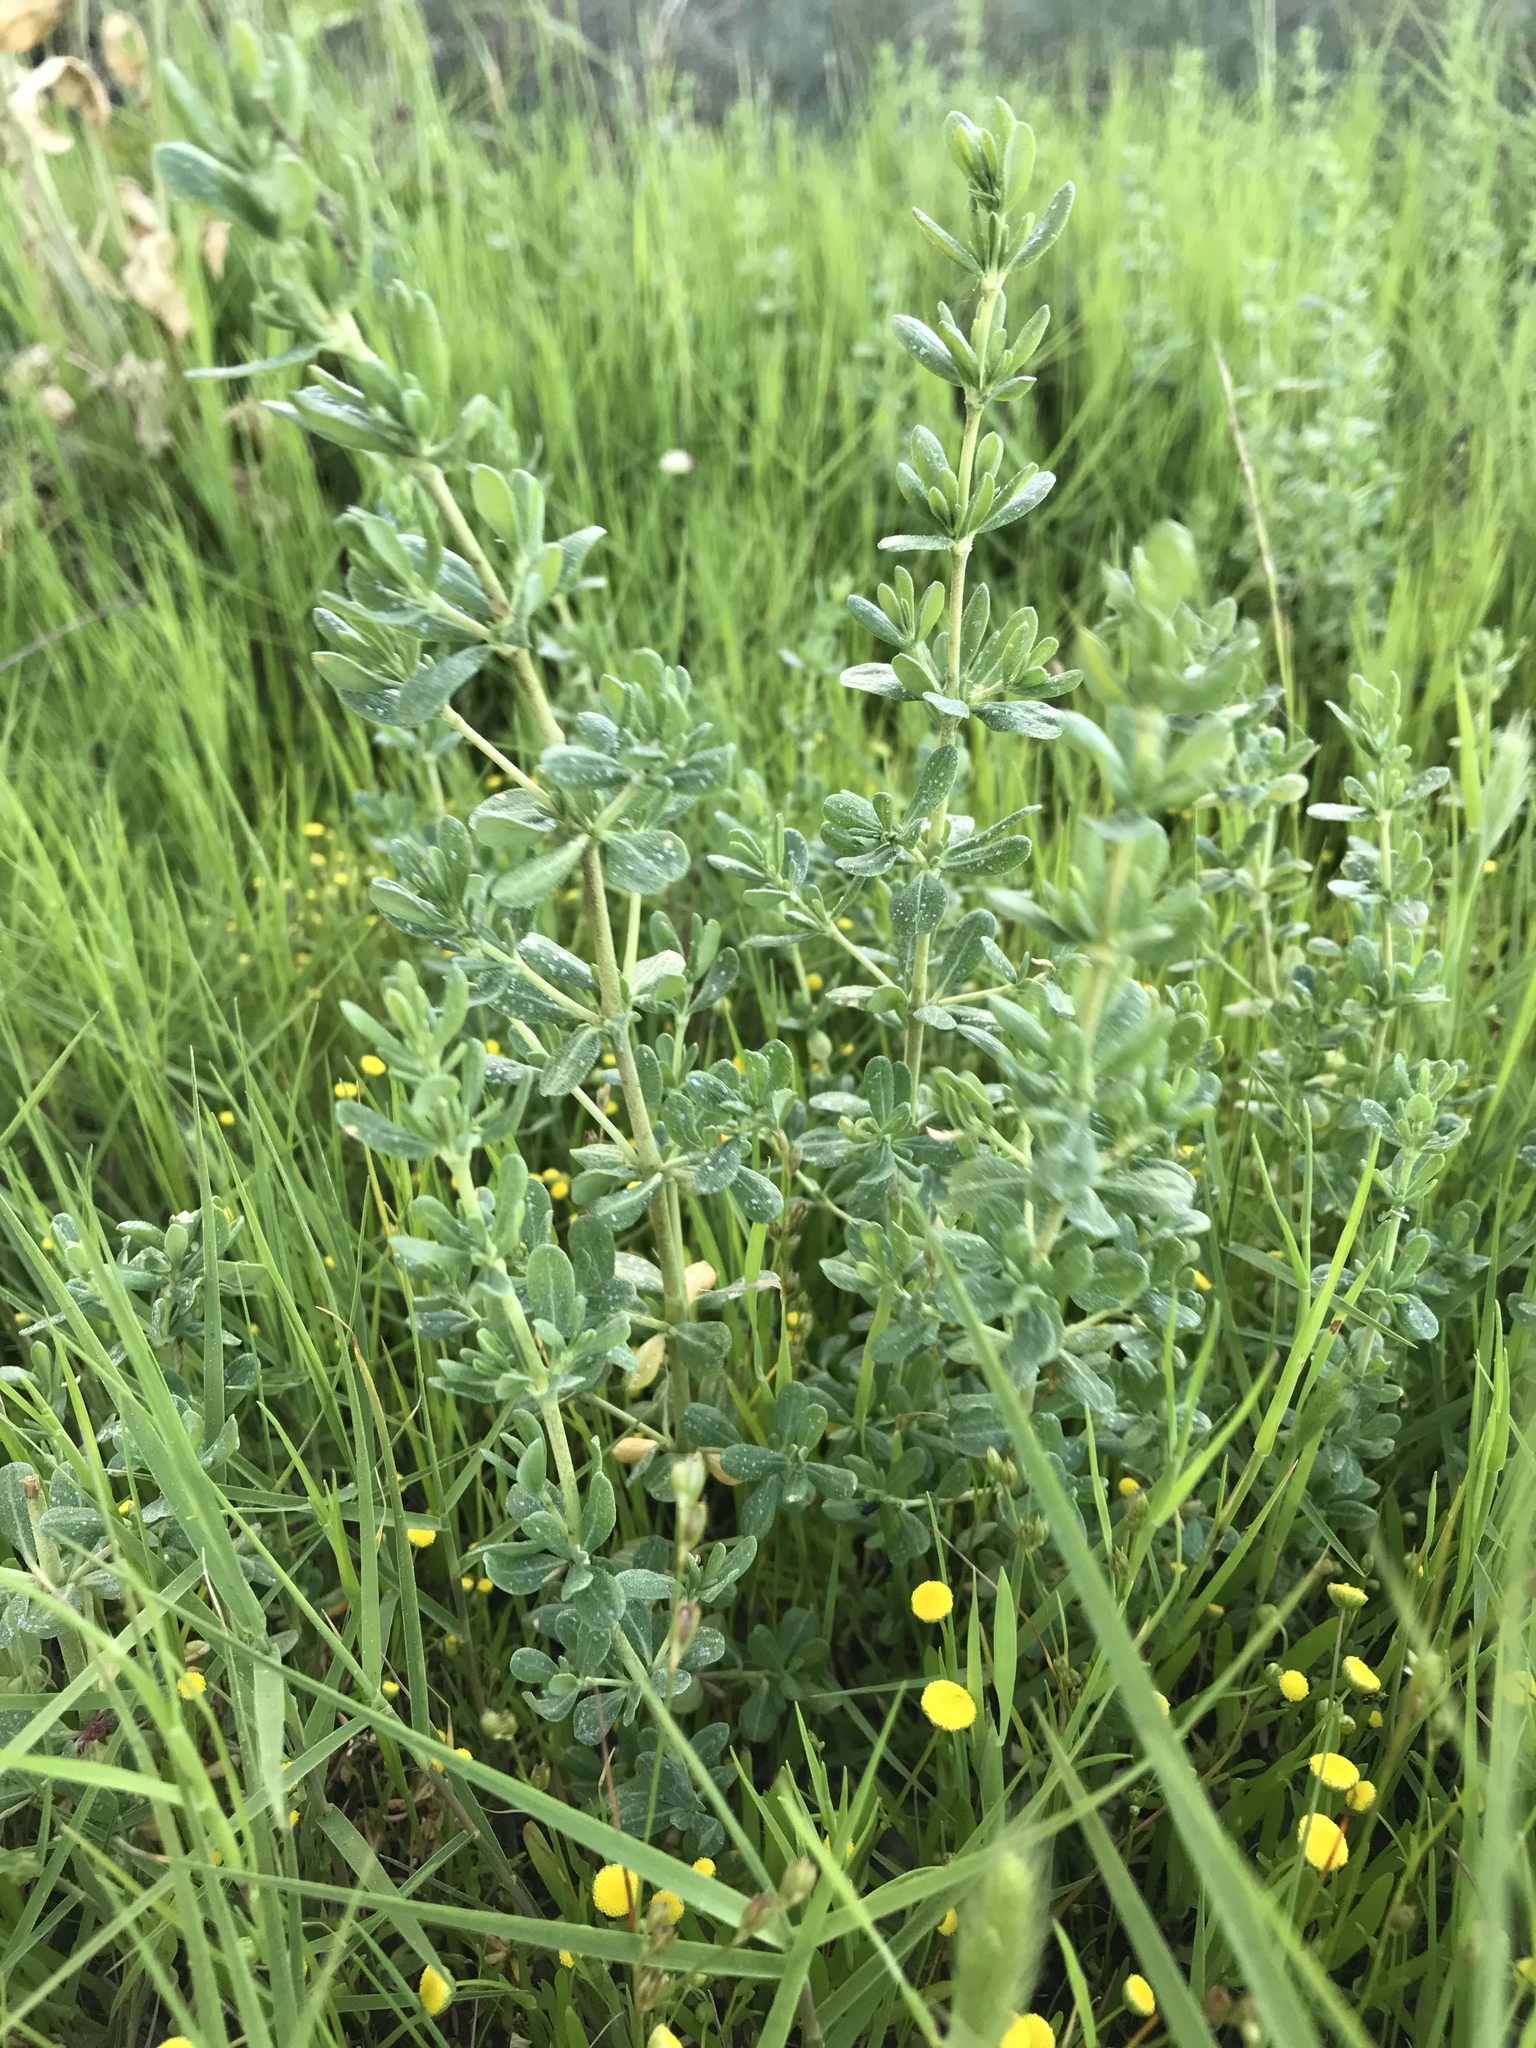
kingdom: Plantae
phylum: Tracheophyta
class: Magnoliopsida
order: Caryophyllales
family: Frankeniaceae
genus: Frankenia
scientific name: Frankenia salina
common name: Alkali seaheath
